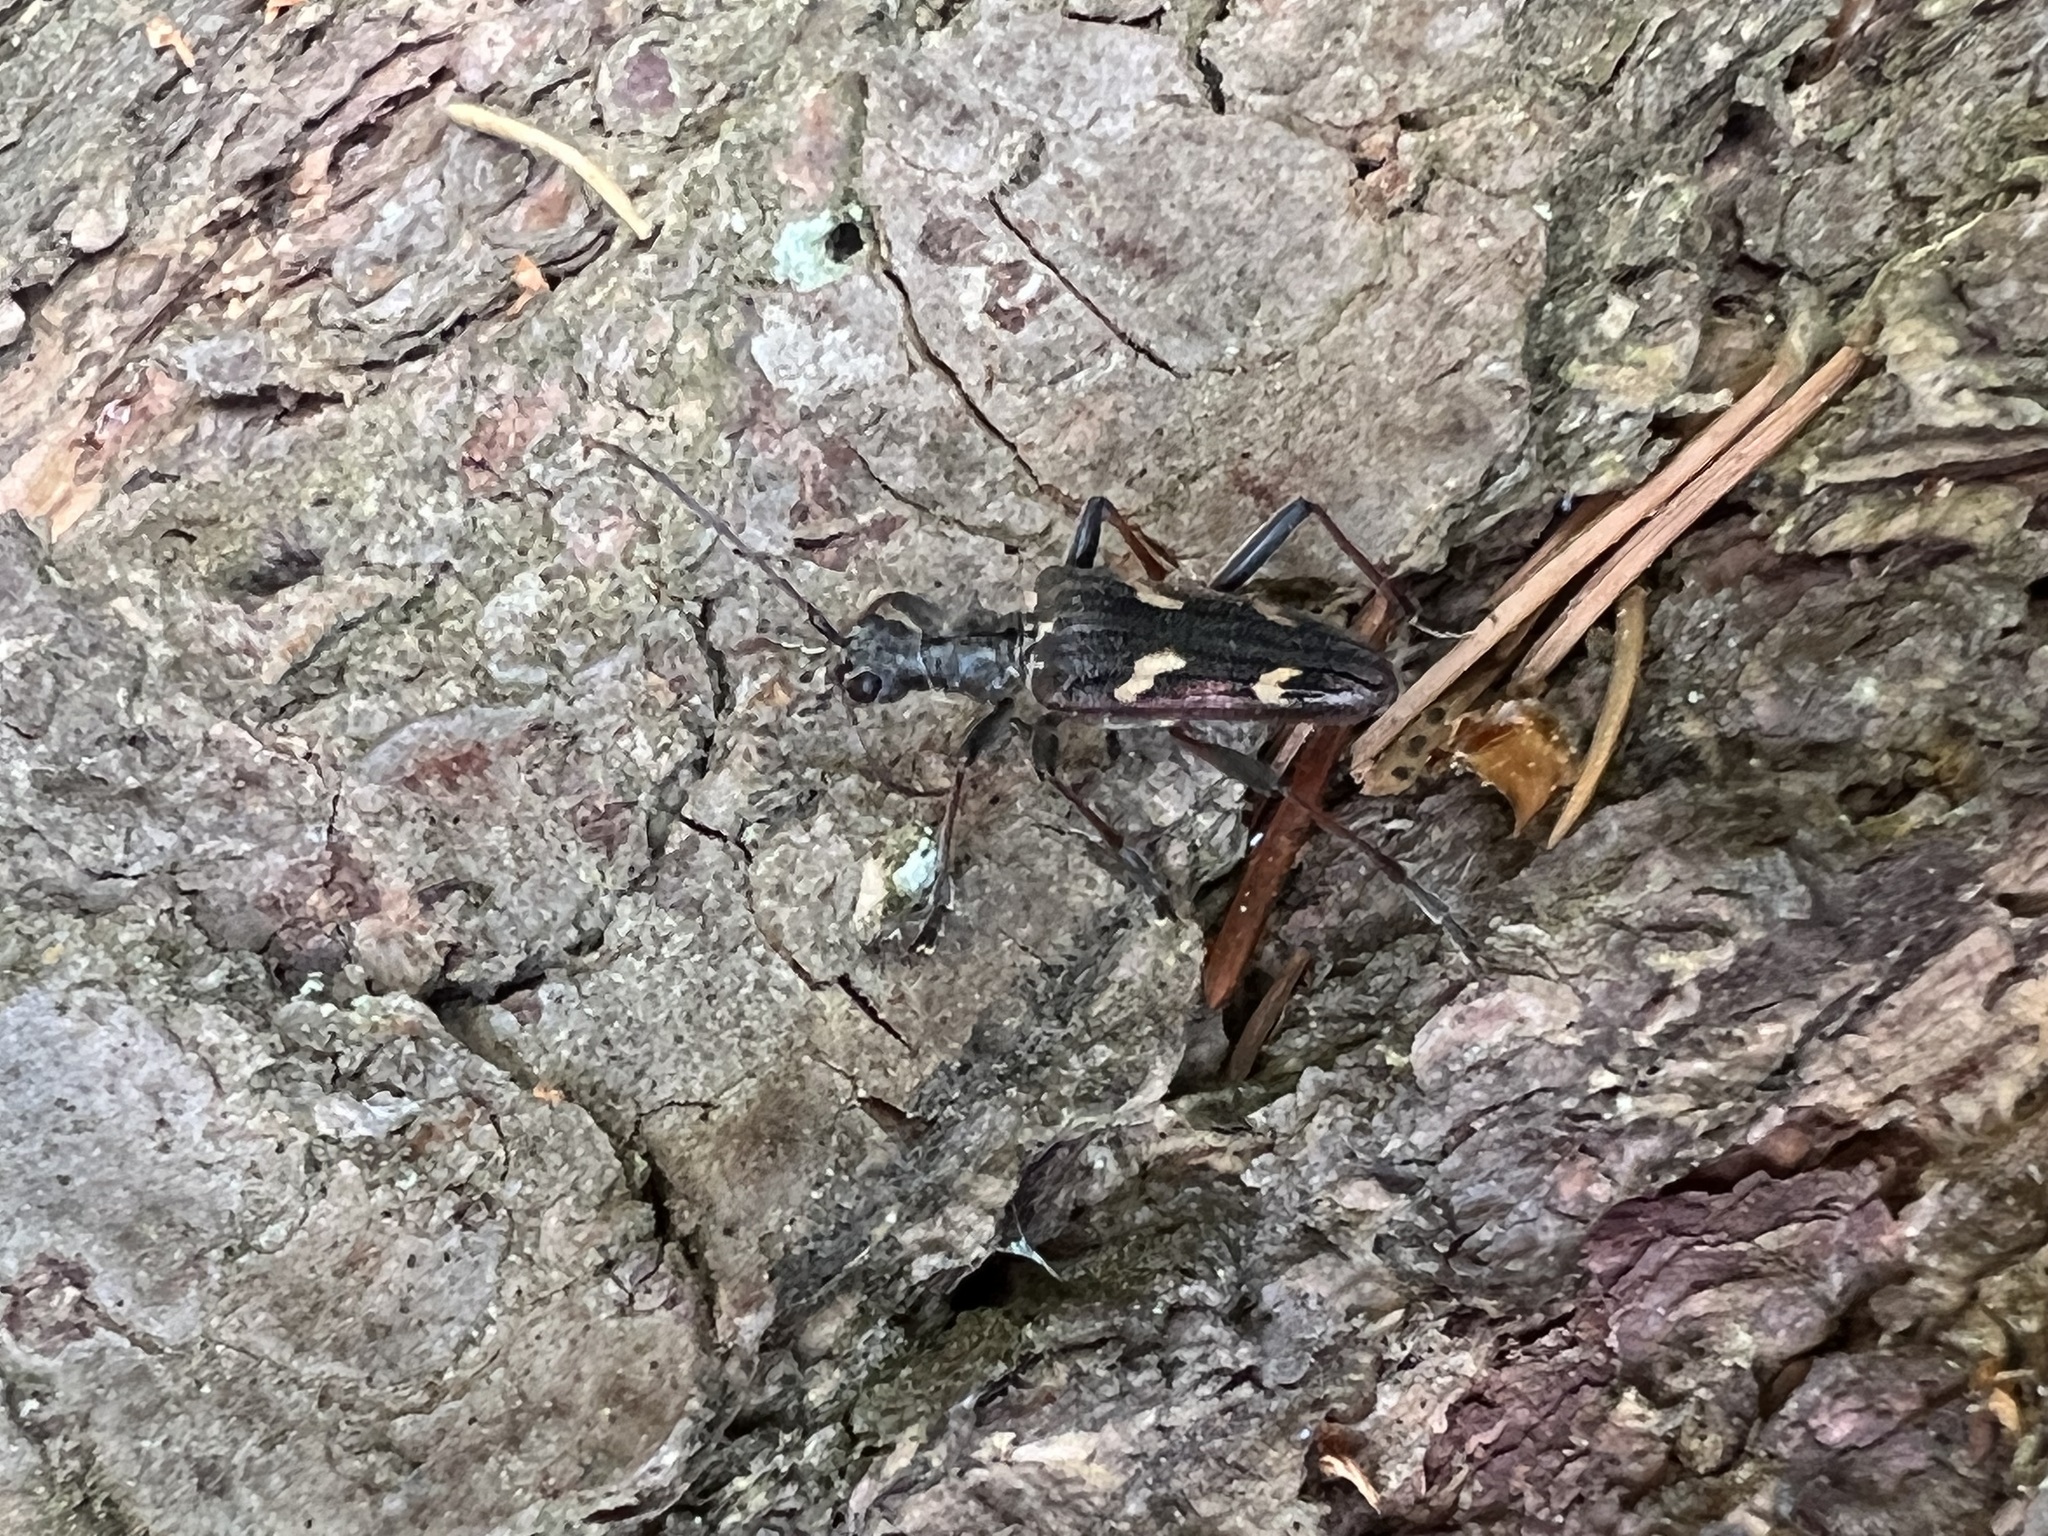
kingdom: Animalia
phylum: Arthropoda
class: Insecta
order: Coleoptera
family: Cerambycidae
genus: Rhagium
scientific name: Rhagium bifasciatum
